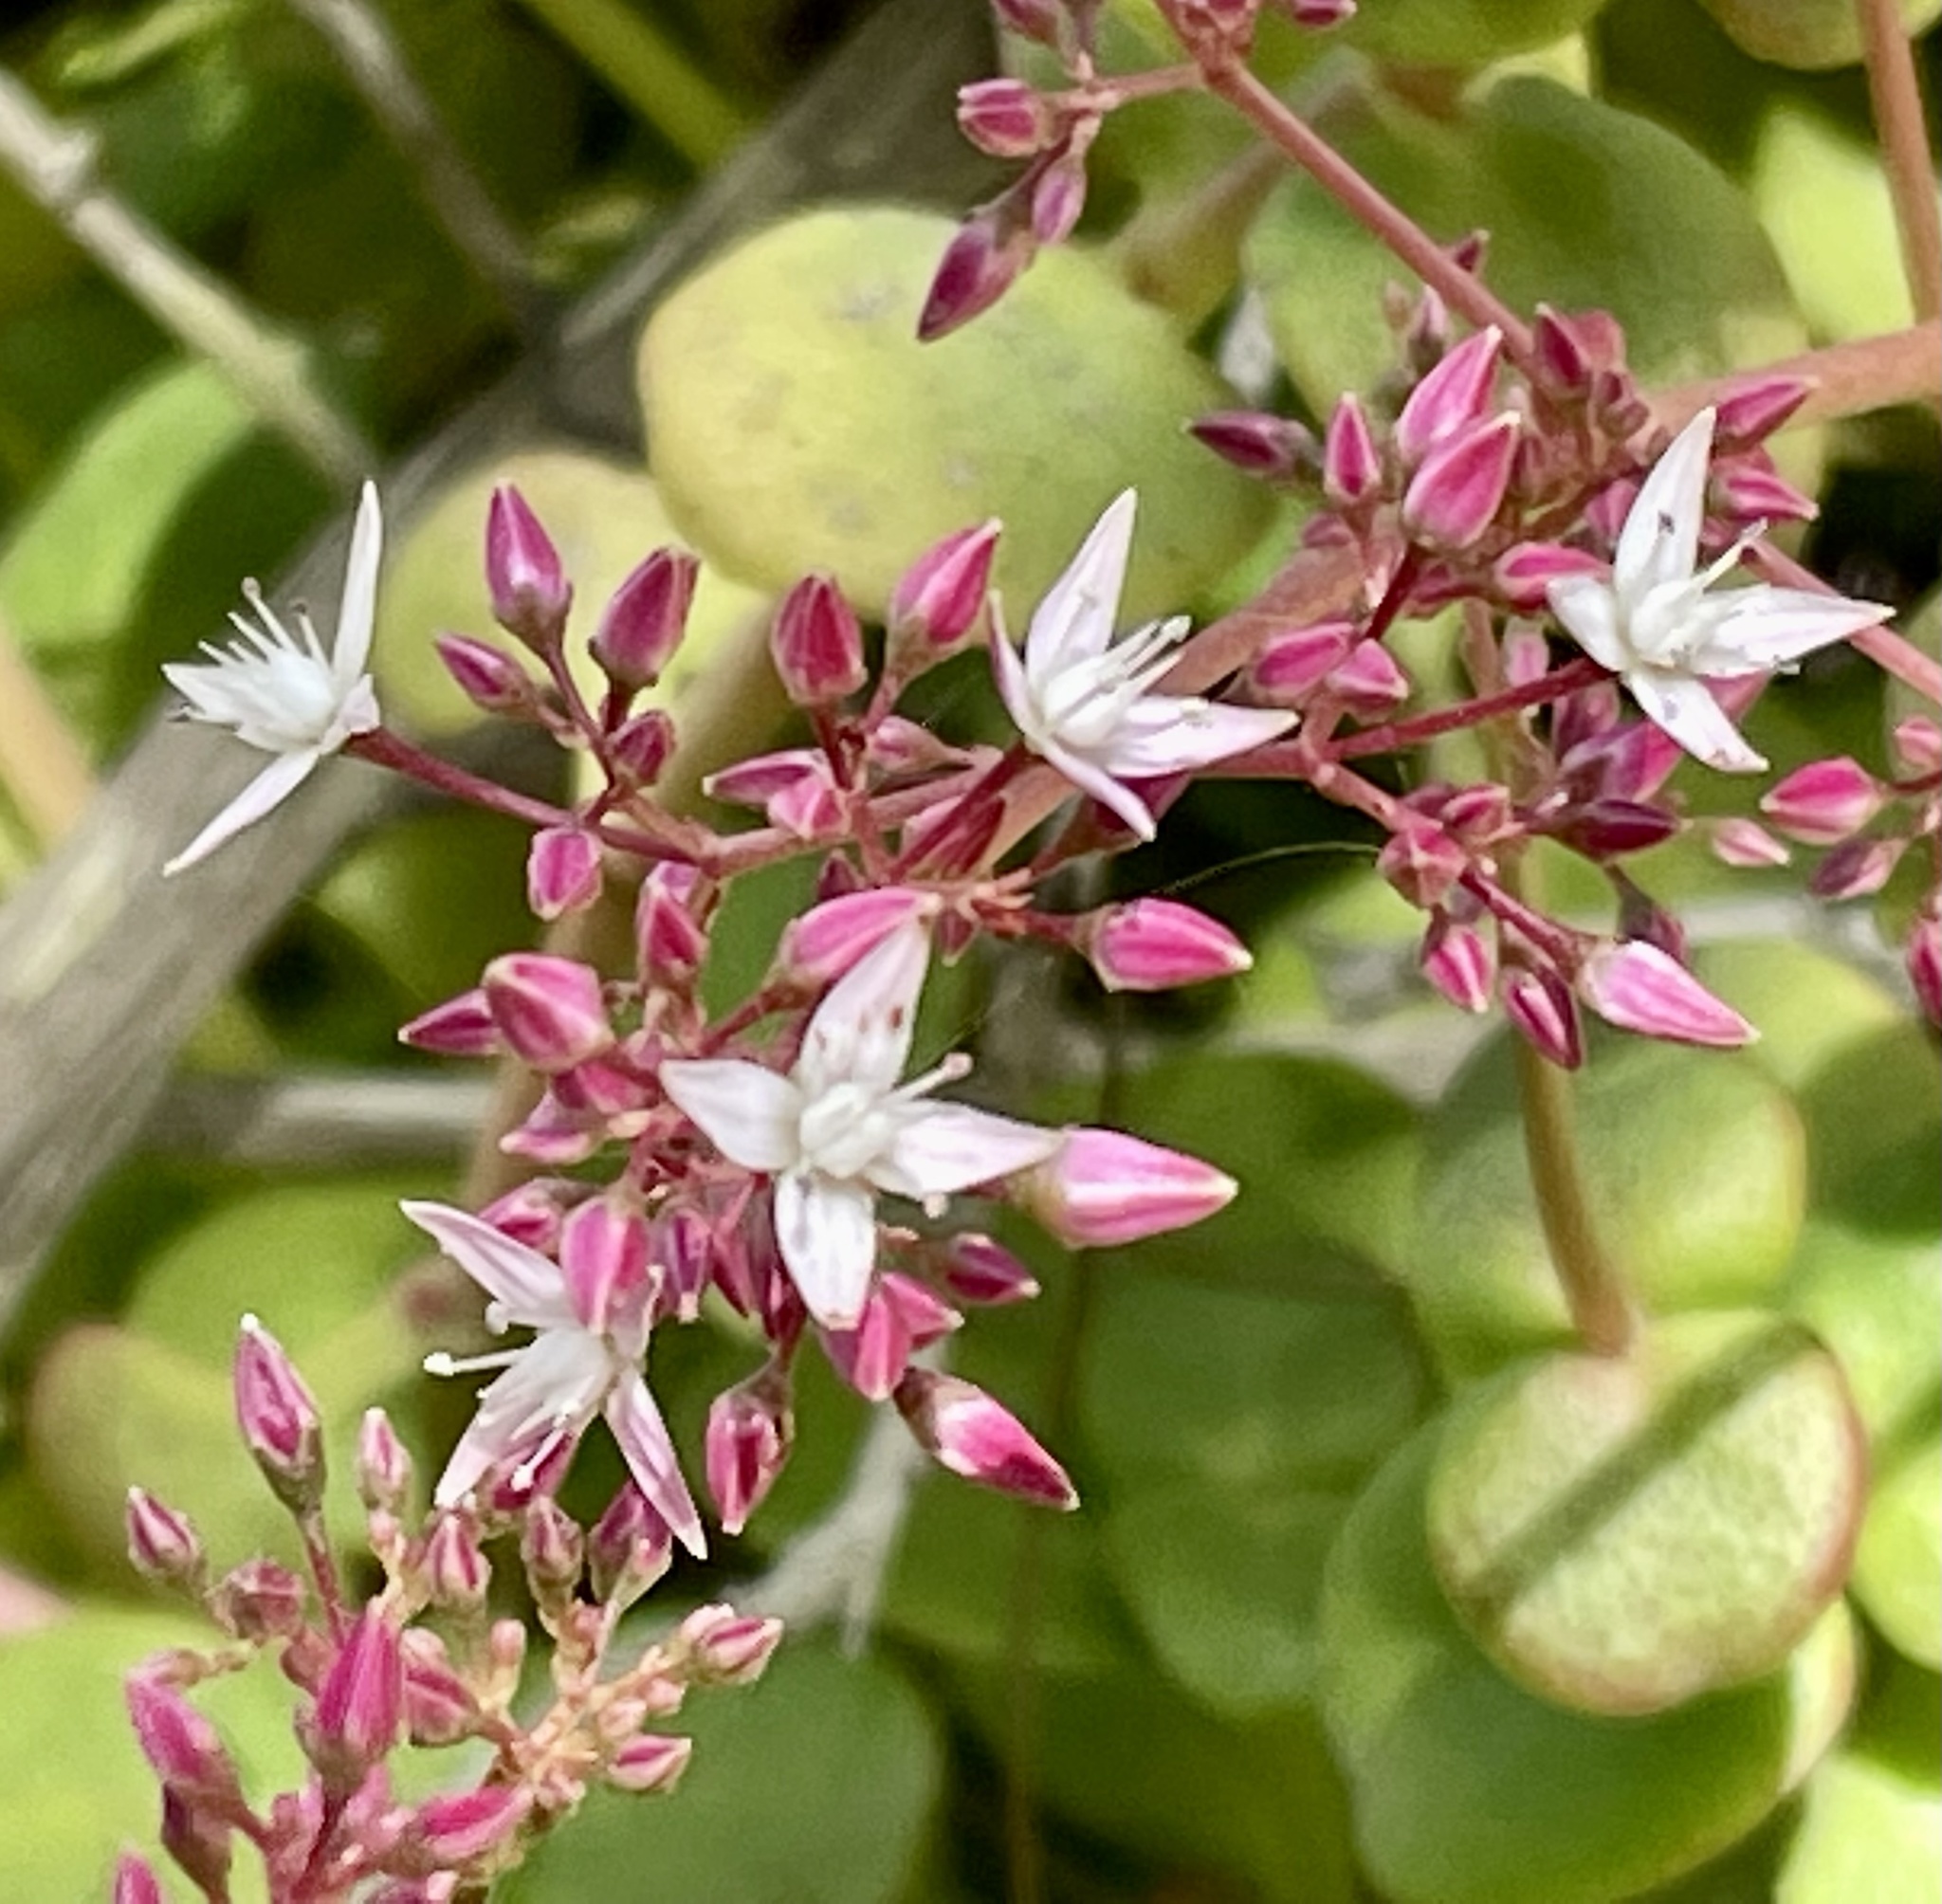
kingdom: Plantae
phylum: Tracheophyta
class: Magnoliopsida
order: Saxifragales
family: Crassulaceae
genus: Crassula
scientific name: Crassula multicava
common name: Cape province pygmyweed
